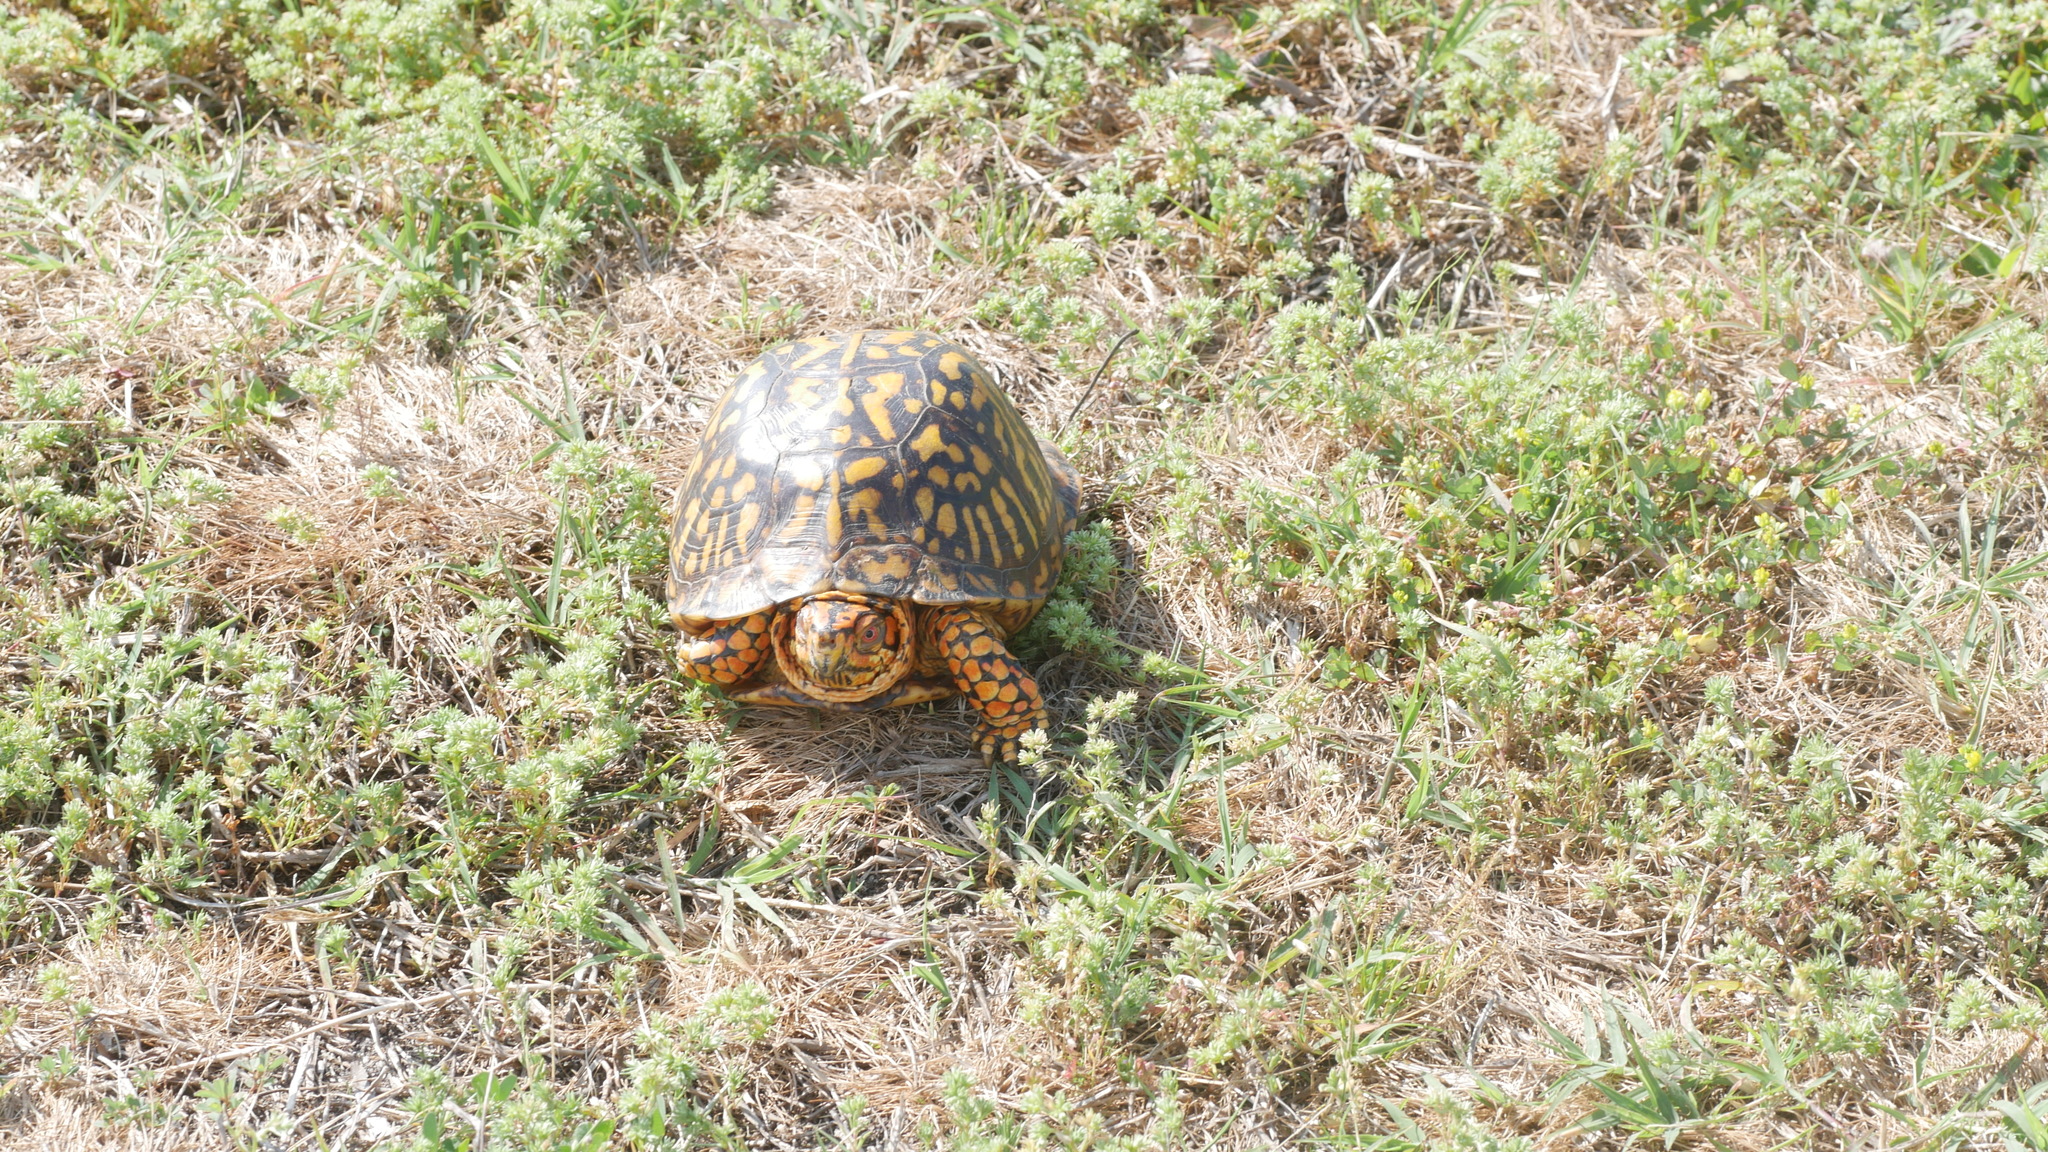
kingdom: Animalia
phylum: Chordata
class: Testudines
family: Emydidae
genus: Terrapene
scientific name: Terrapene carolina
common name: Common box turtle
